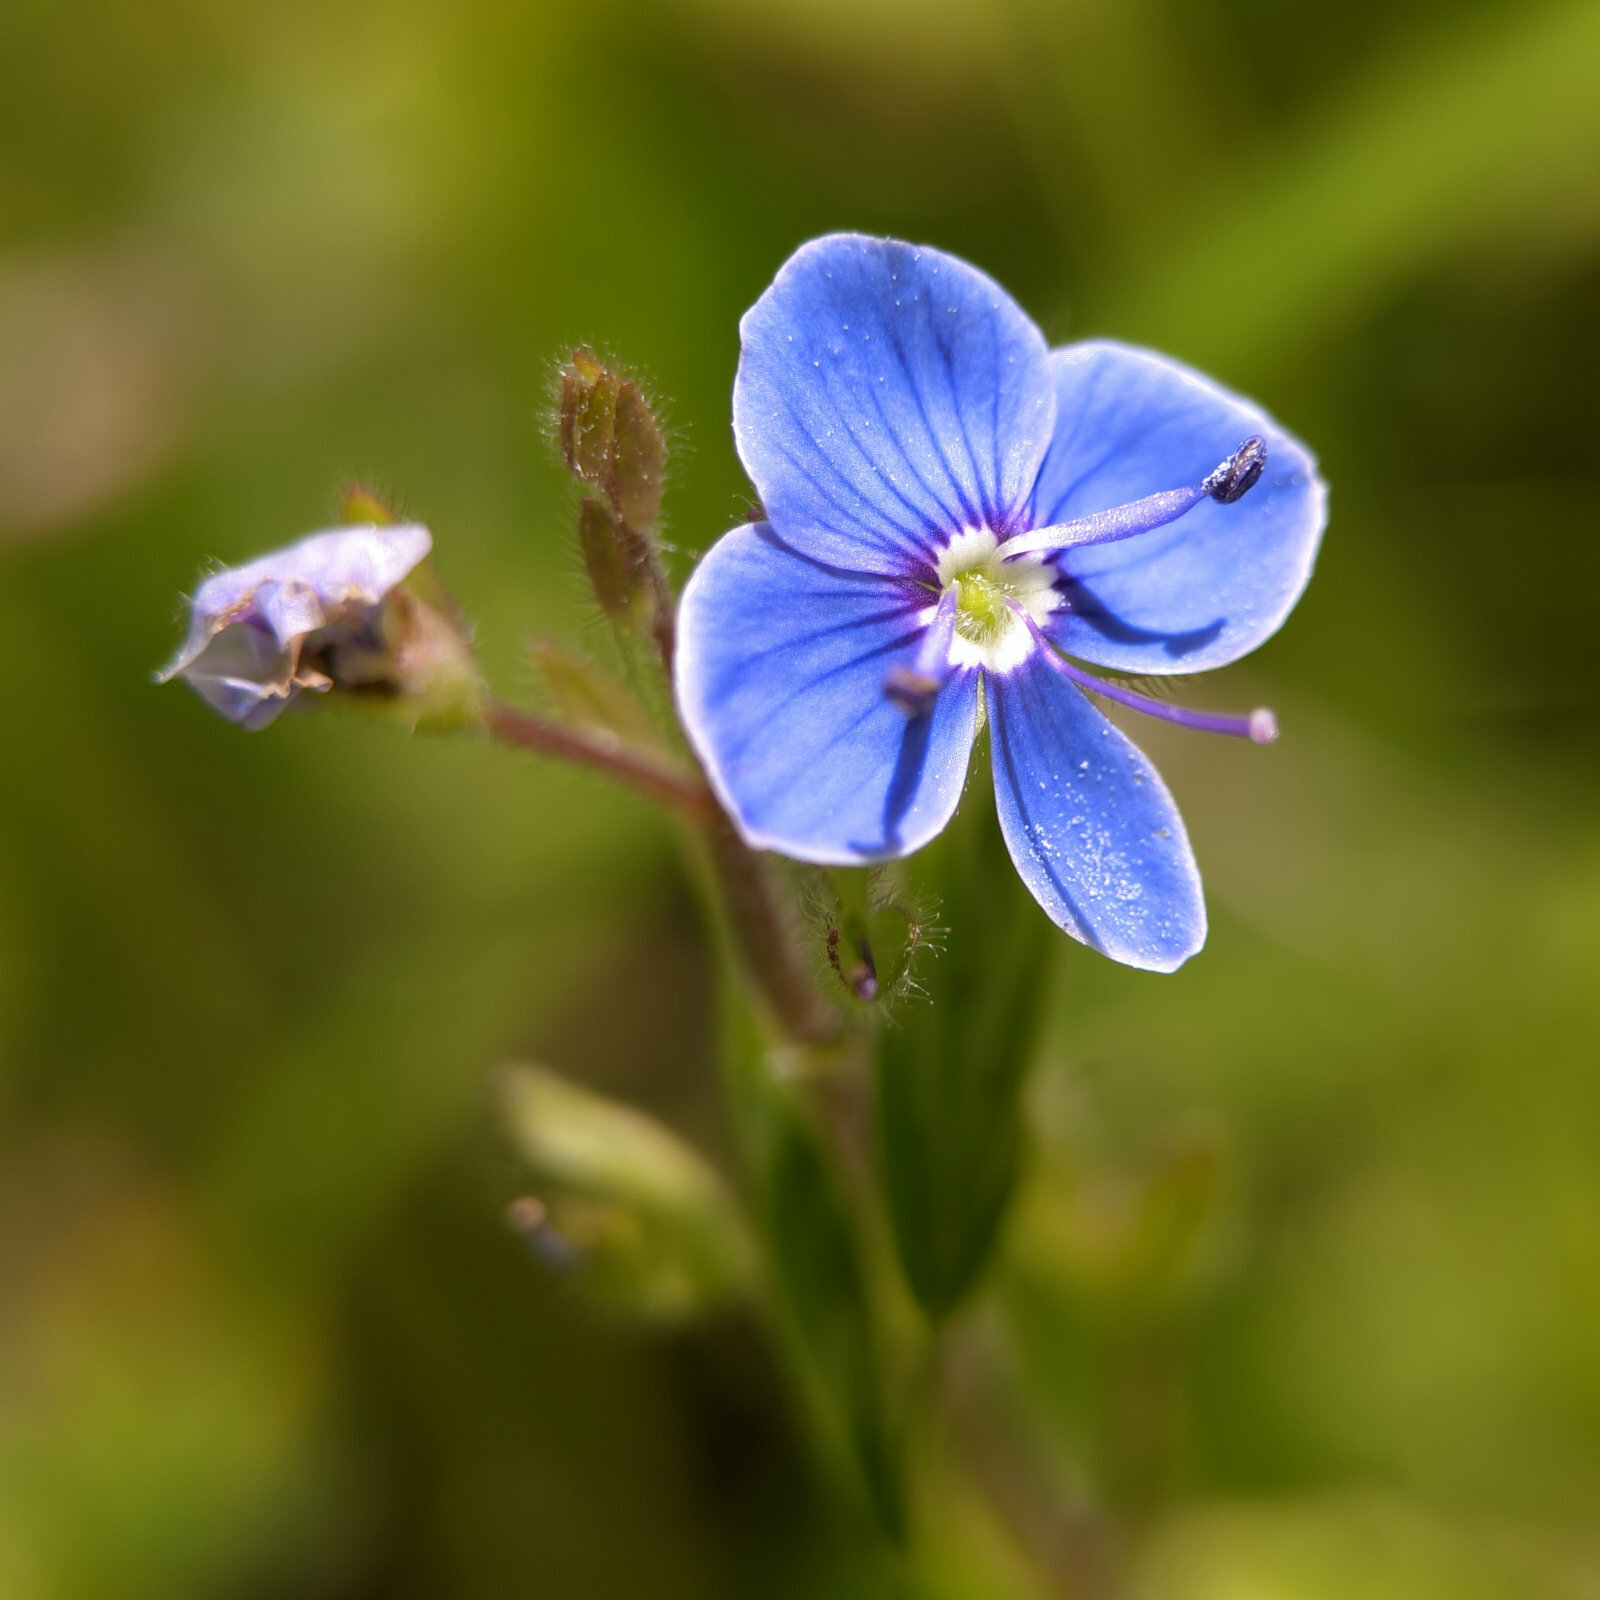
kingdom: Plantae
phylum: Tracheophyta
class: Magnoliopsida
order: Lamiales
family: Plantaginaceae
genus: Veronica
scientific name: Veronica chamaedrys
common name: Germander speedwell
